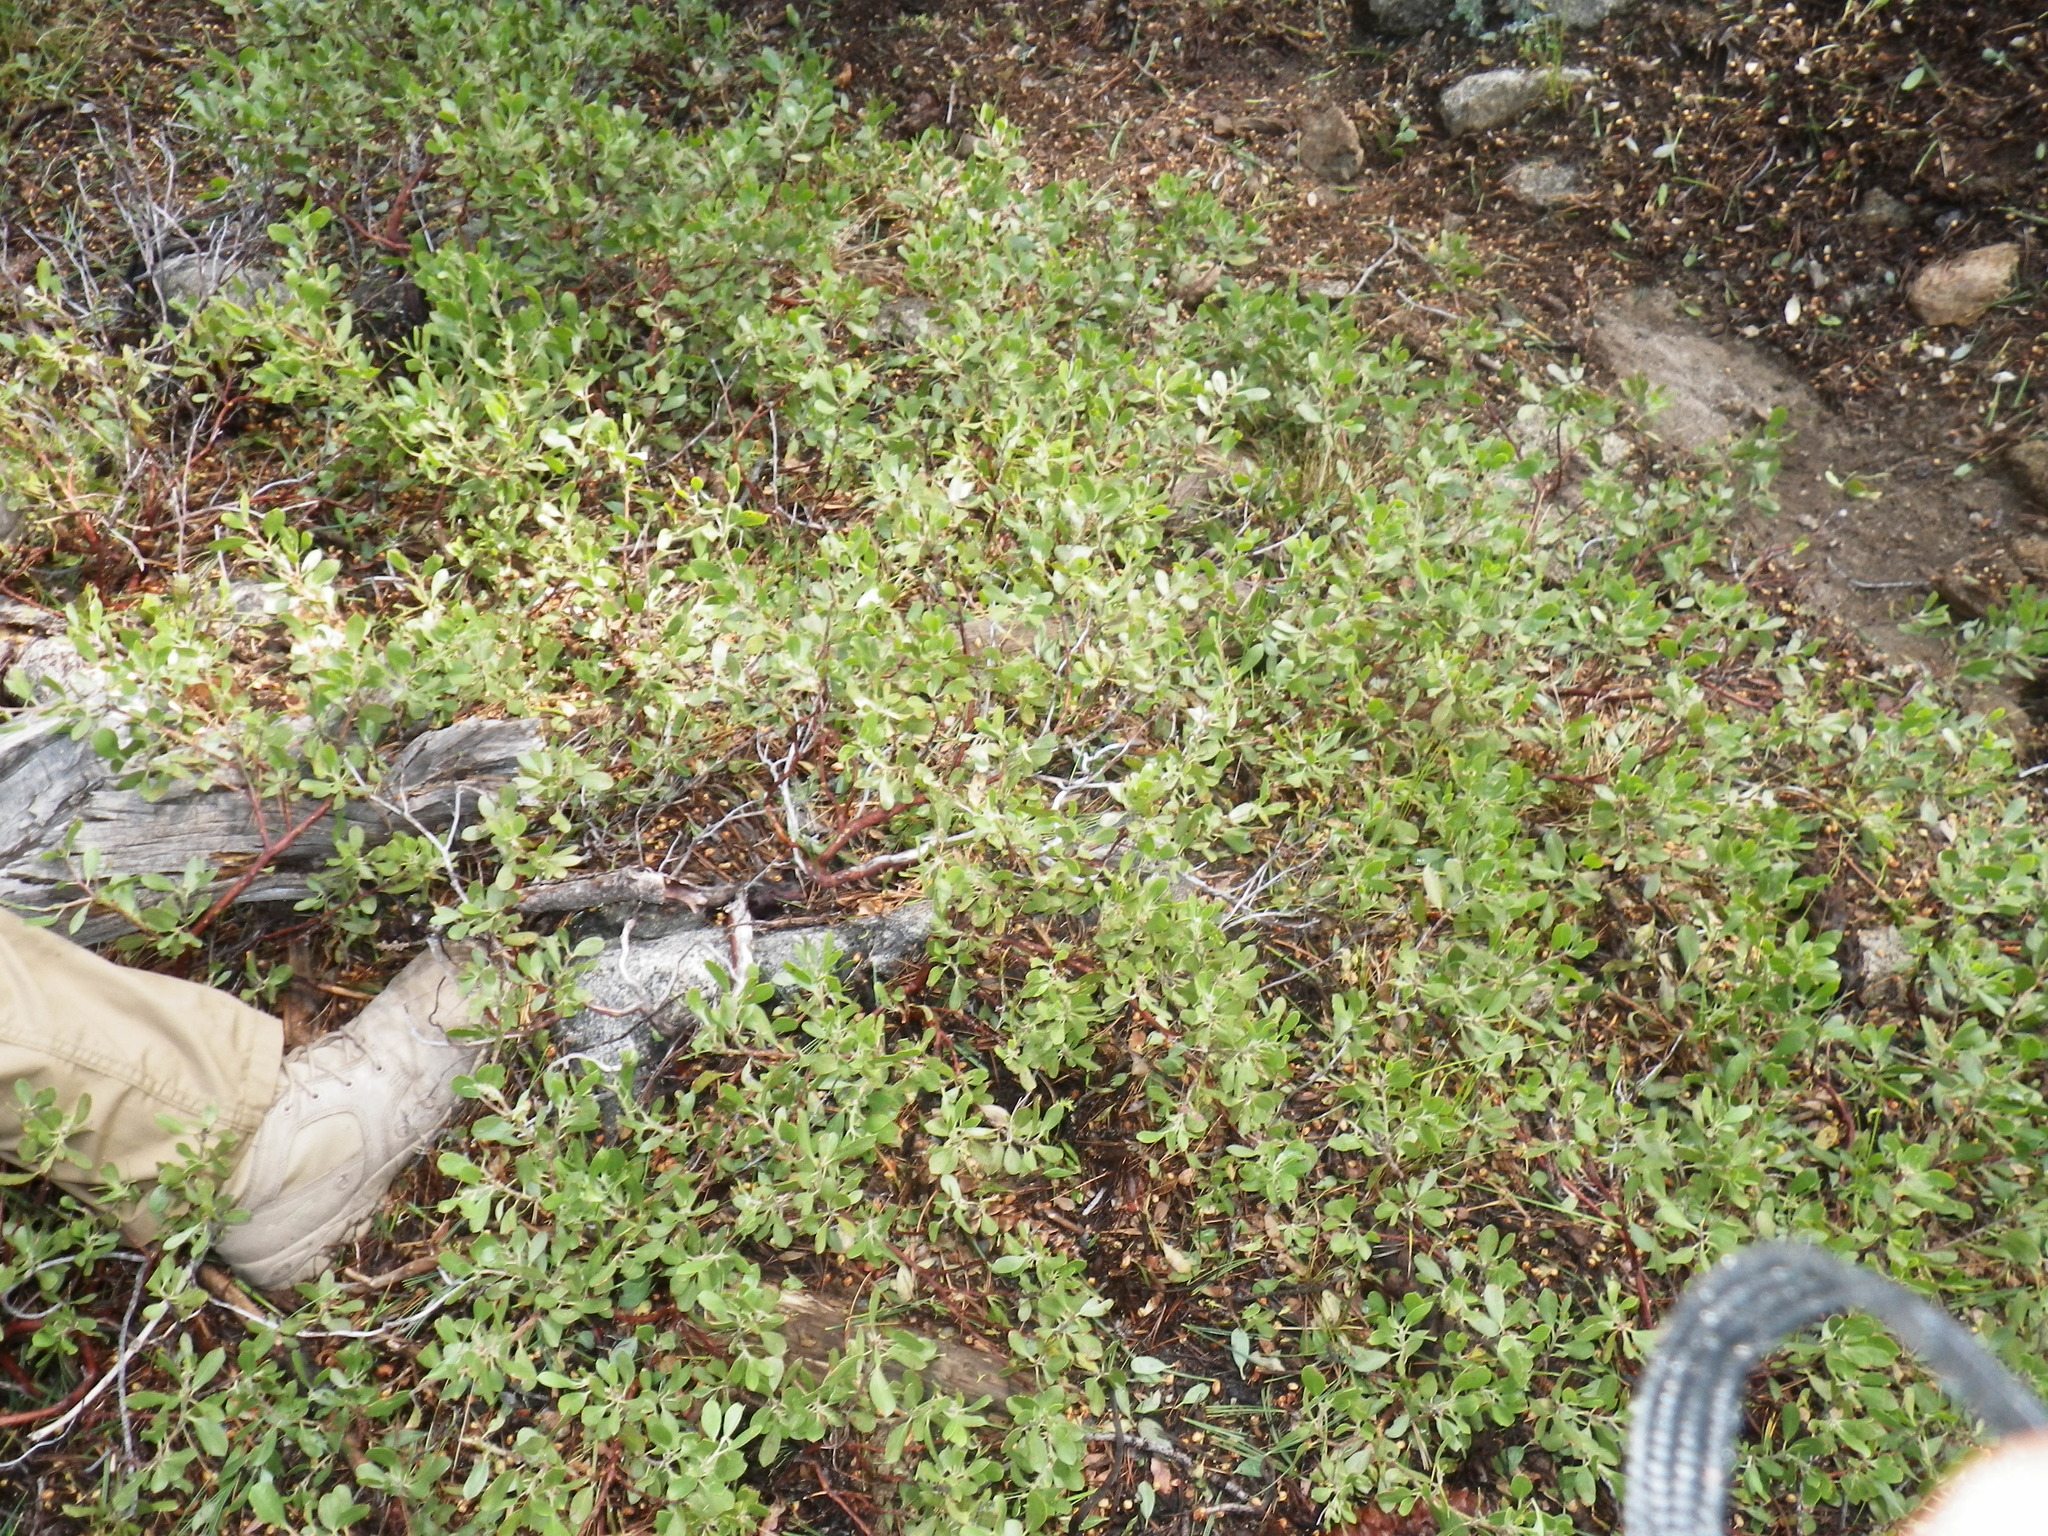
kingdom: Plantae
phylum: Tracheophyta
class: Magnoliopsida
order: Ericales
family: Ericaceae
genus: Arctostaphylos
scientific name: Arctostaphylos nevadensis
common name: Pinemat manzanita
